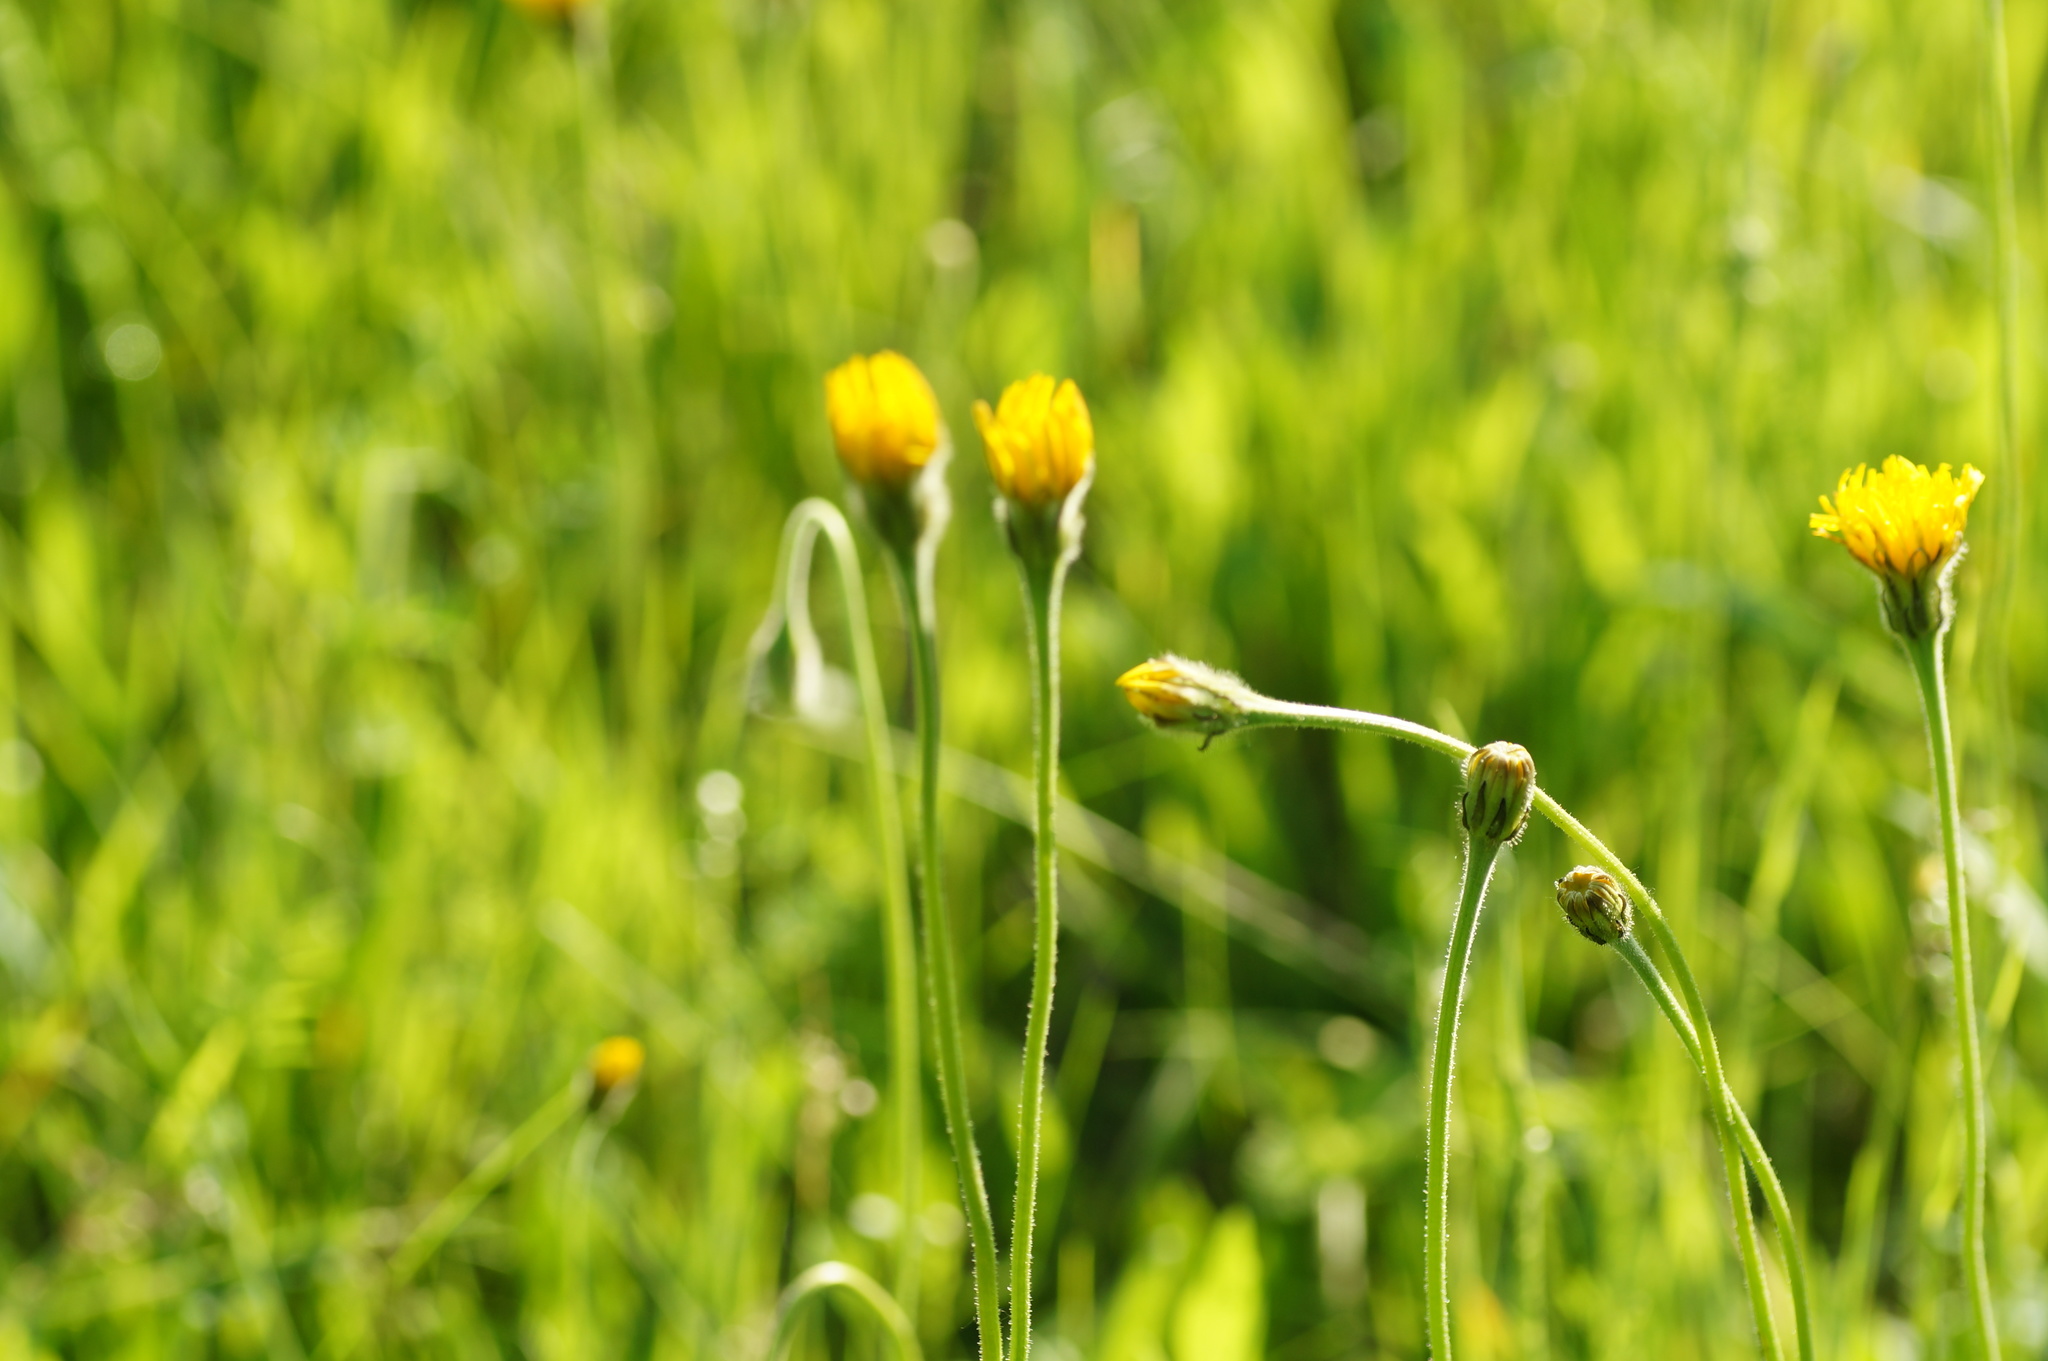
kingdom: Plantae
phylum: Tracheophyta
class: Magnoliopsida
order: Asterales
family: Asteraceae
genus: Leontodon
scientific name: Leontodon hispidus
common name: Rough hawkbit
